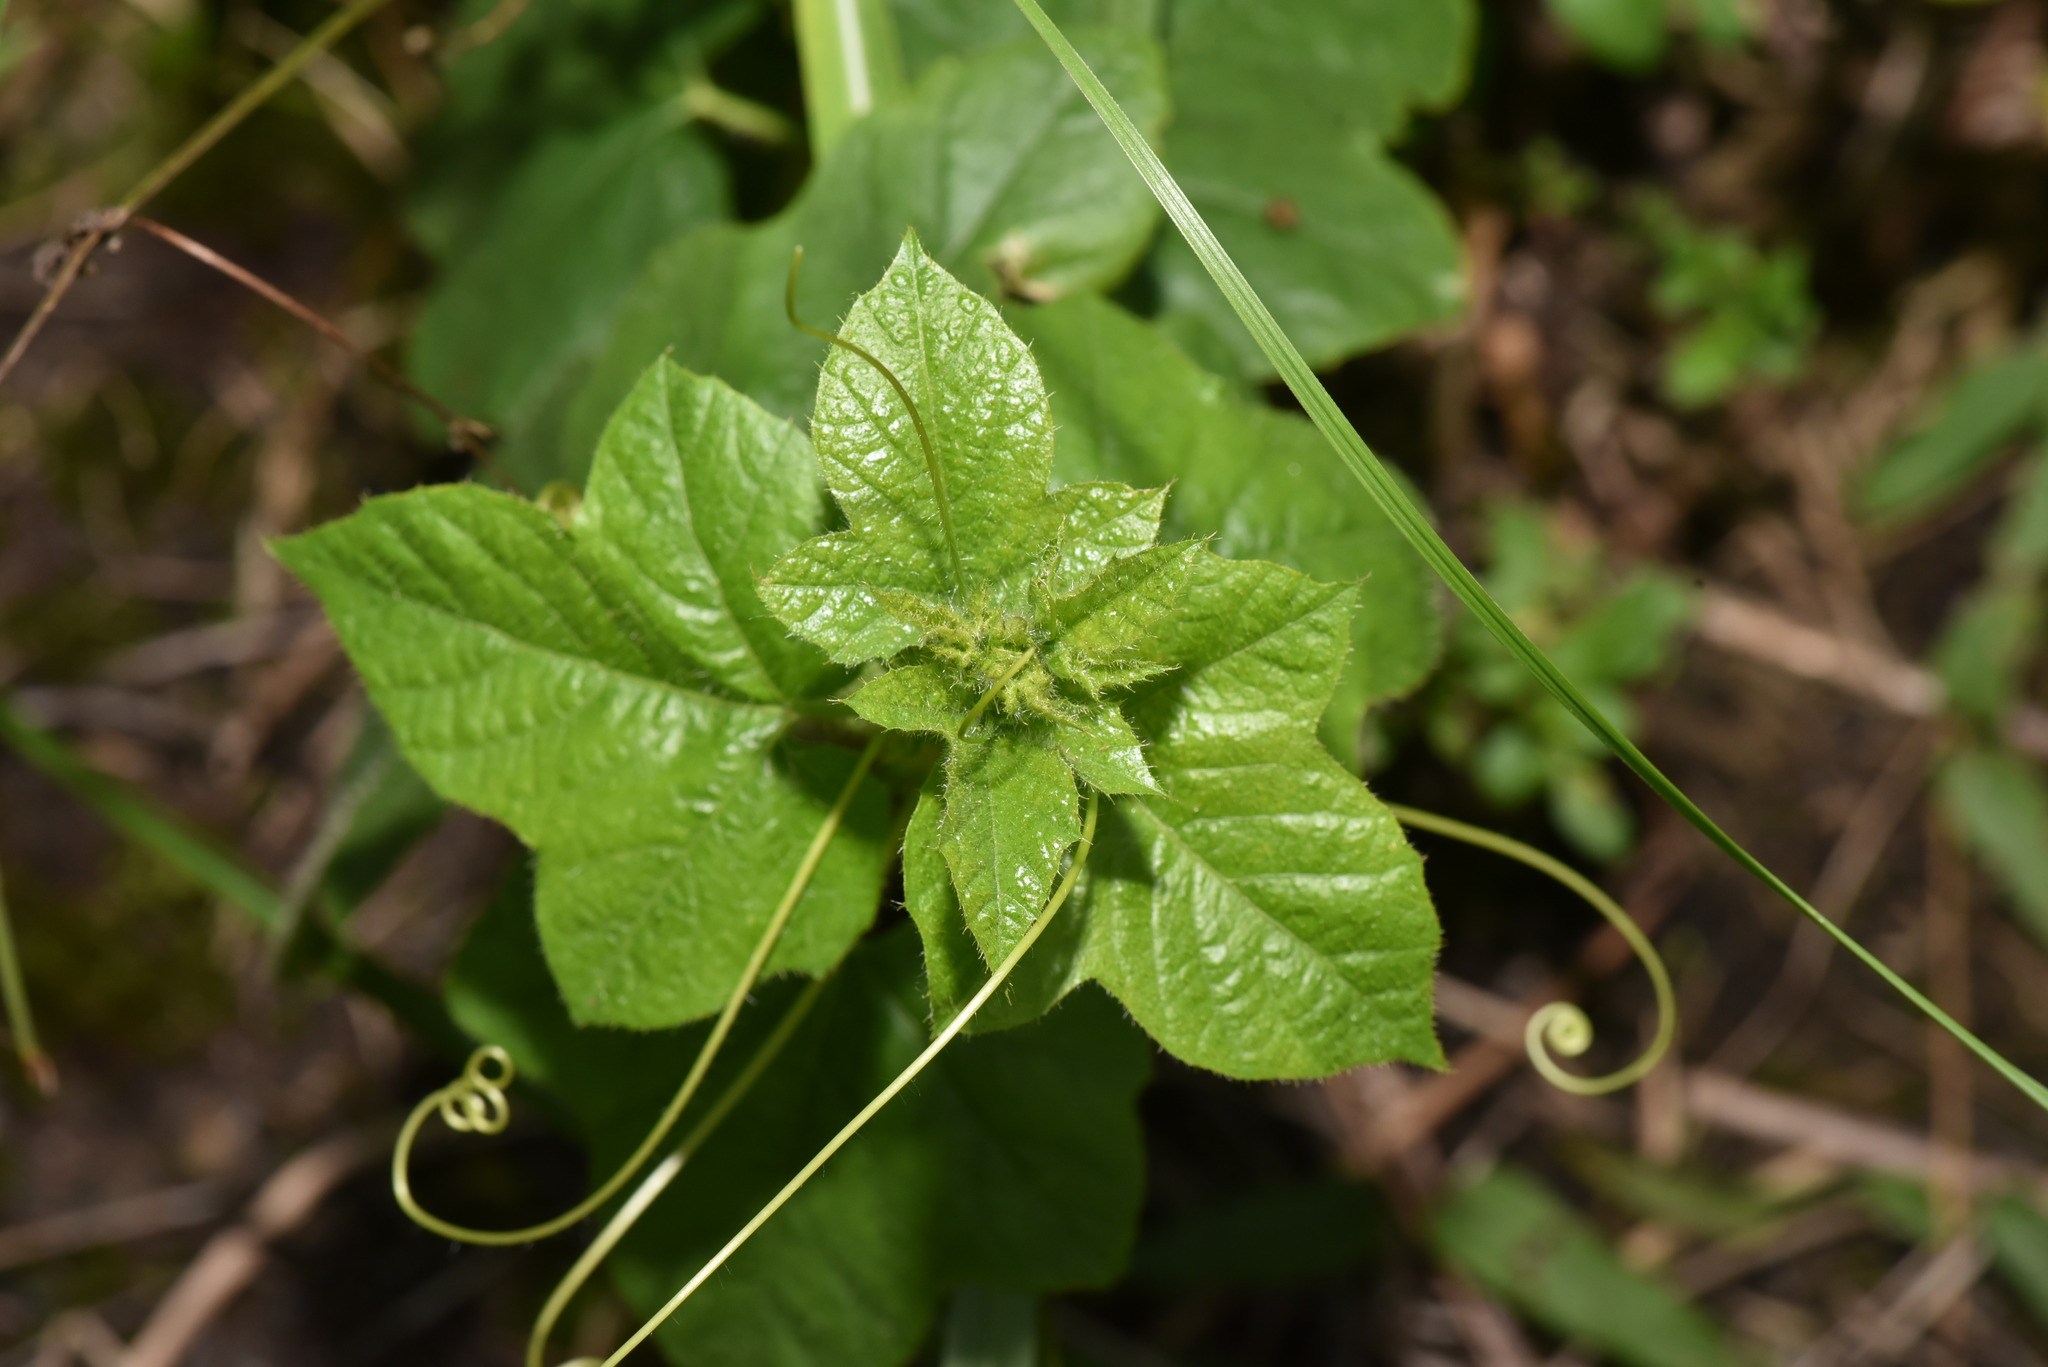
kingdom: Plantae
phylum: Tracheophyta
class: Magnoliopsida
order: Malpighiales
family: Passifloraceae
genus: Passiflora
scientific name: Passiflora vesicaria
